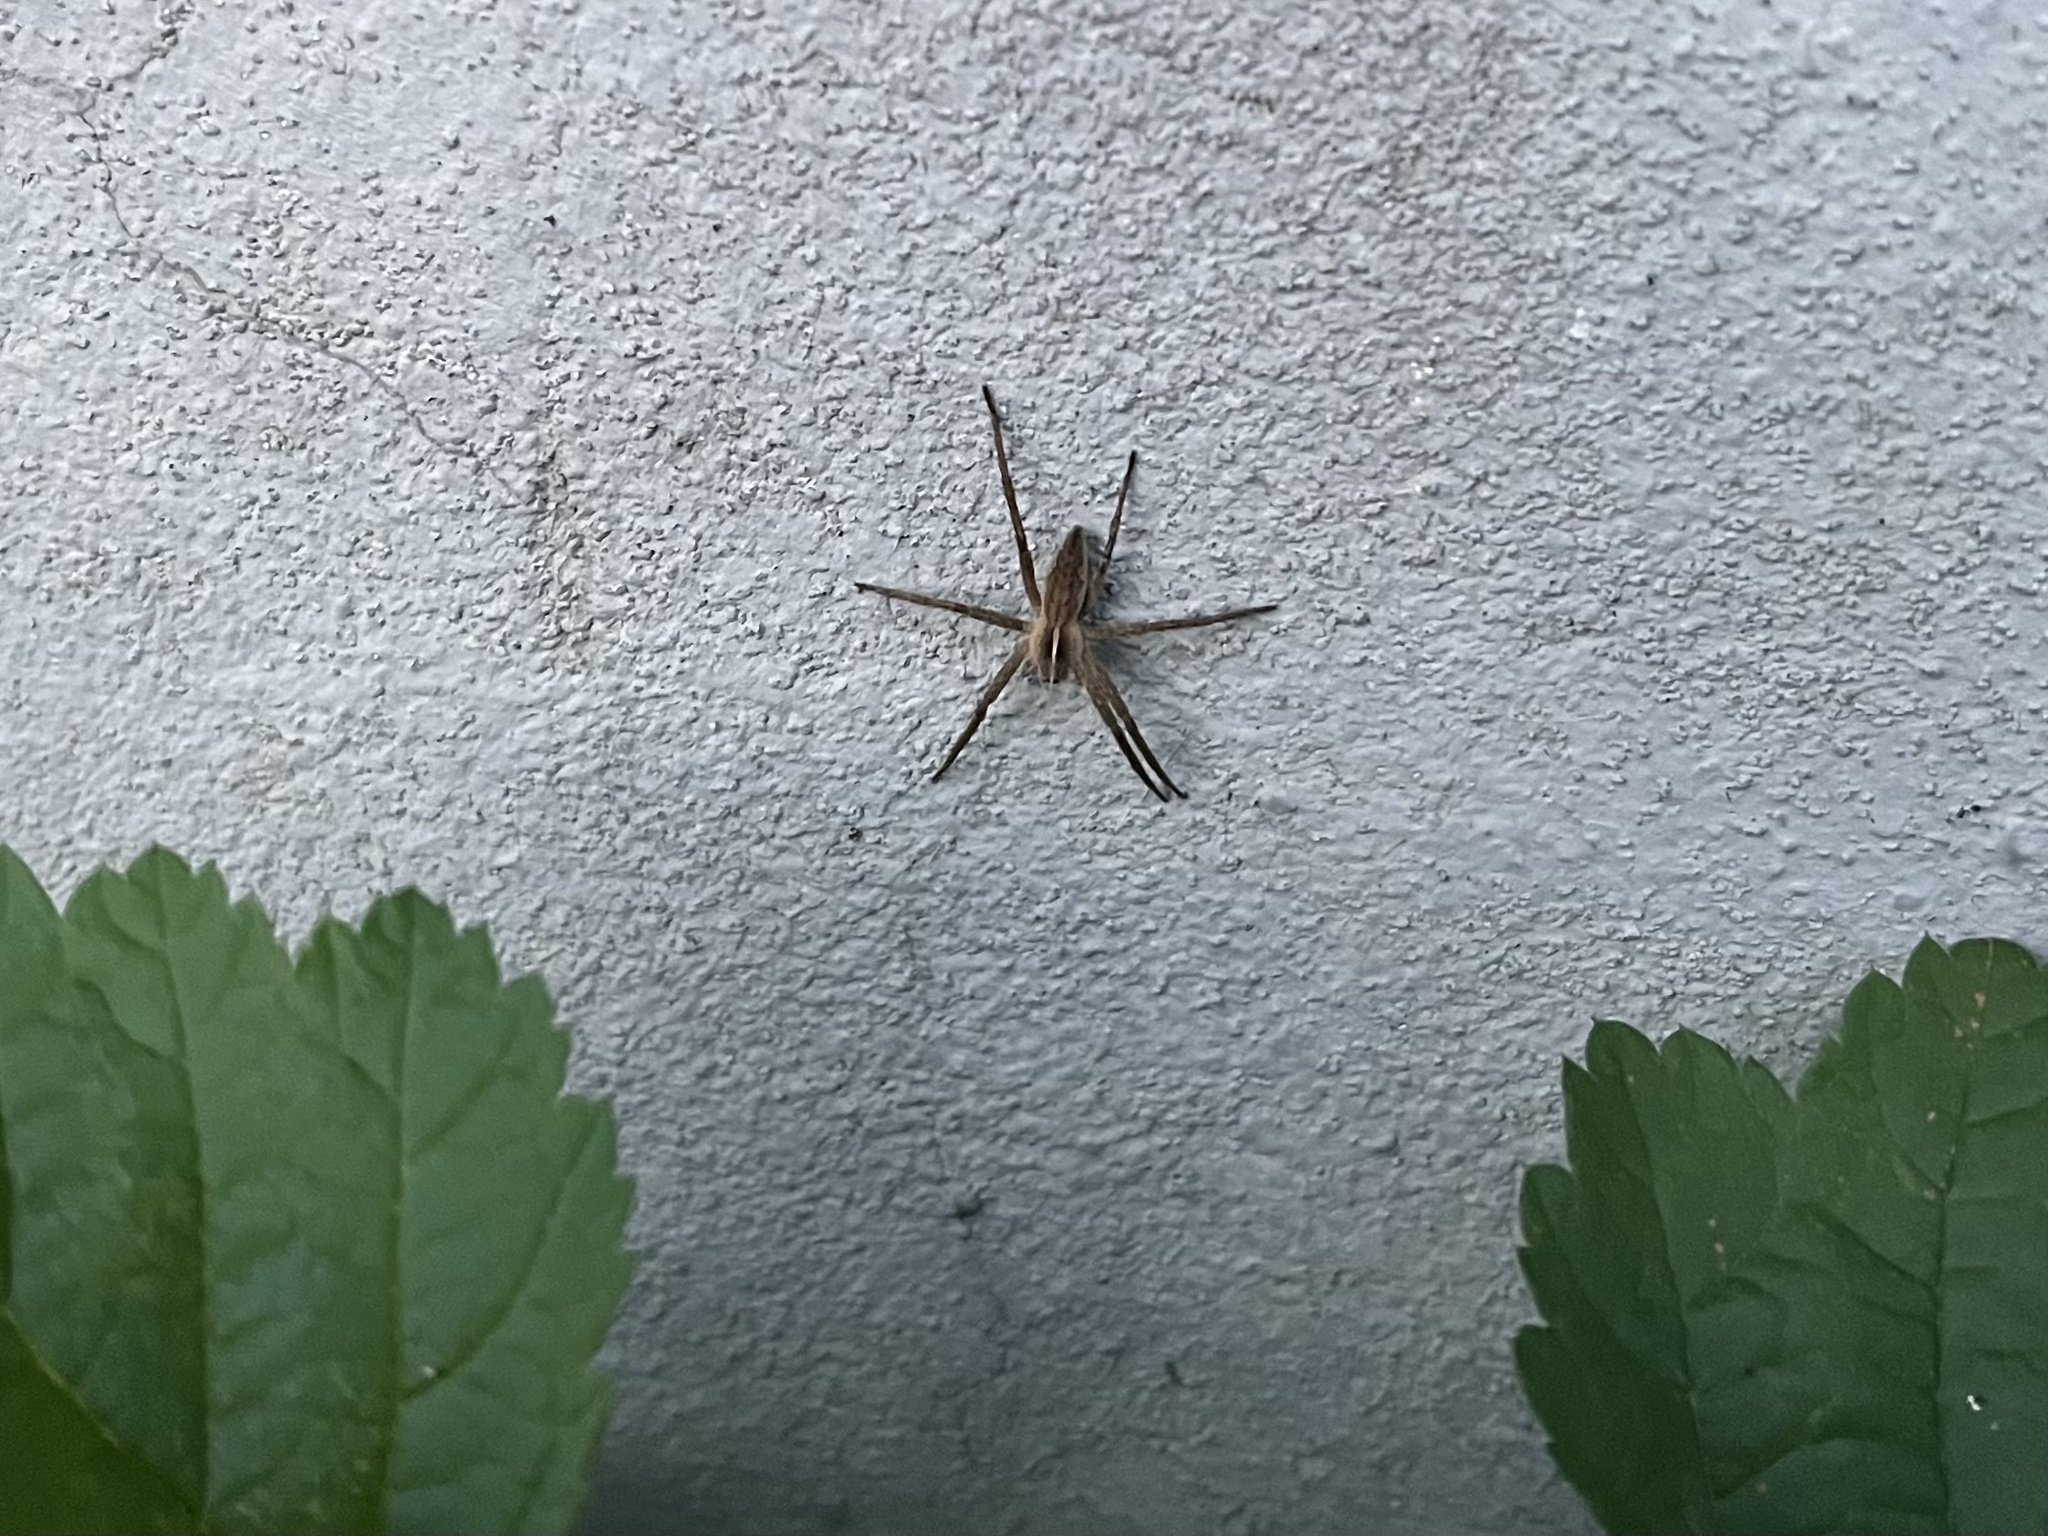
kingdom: Animalia
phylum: Arthropoda
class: Arachnida
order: Araneae
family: Pisauridae
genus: Pisaura
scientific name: Pisaura mirabilis
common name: Tent spider
